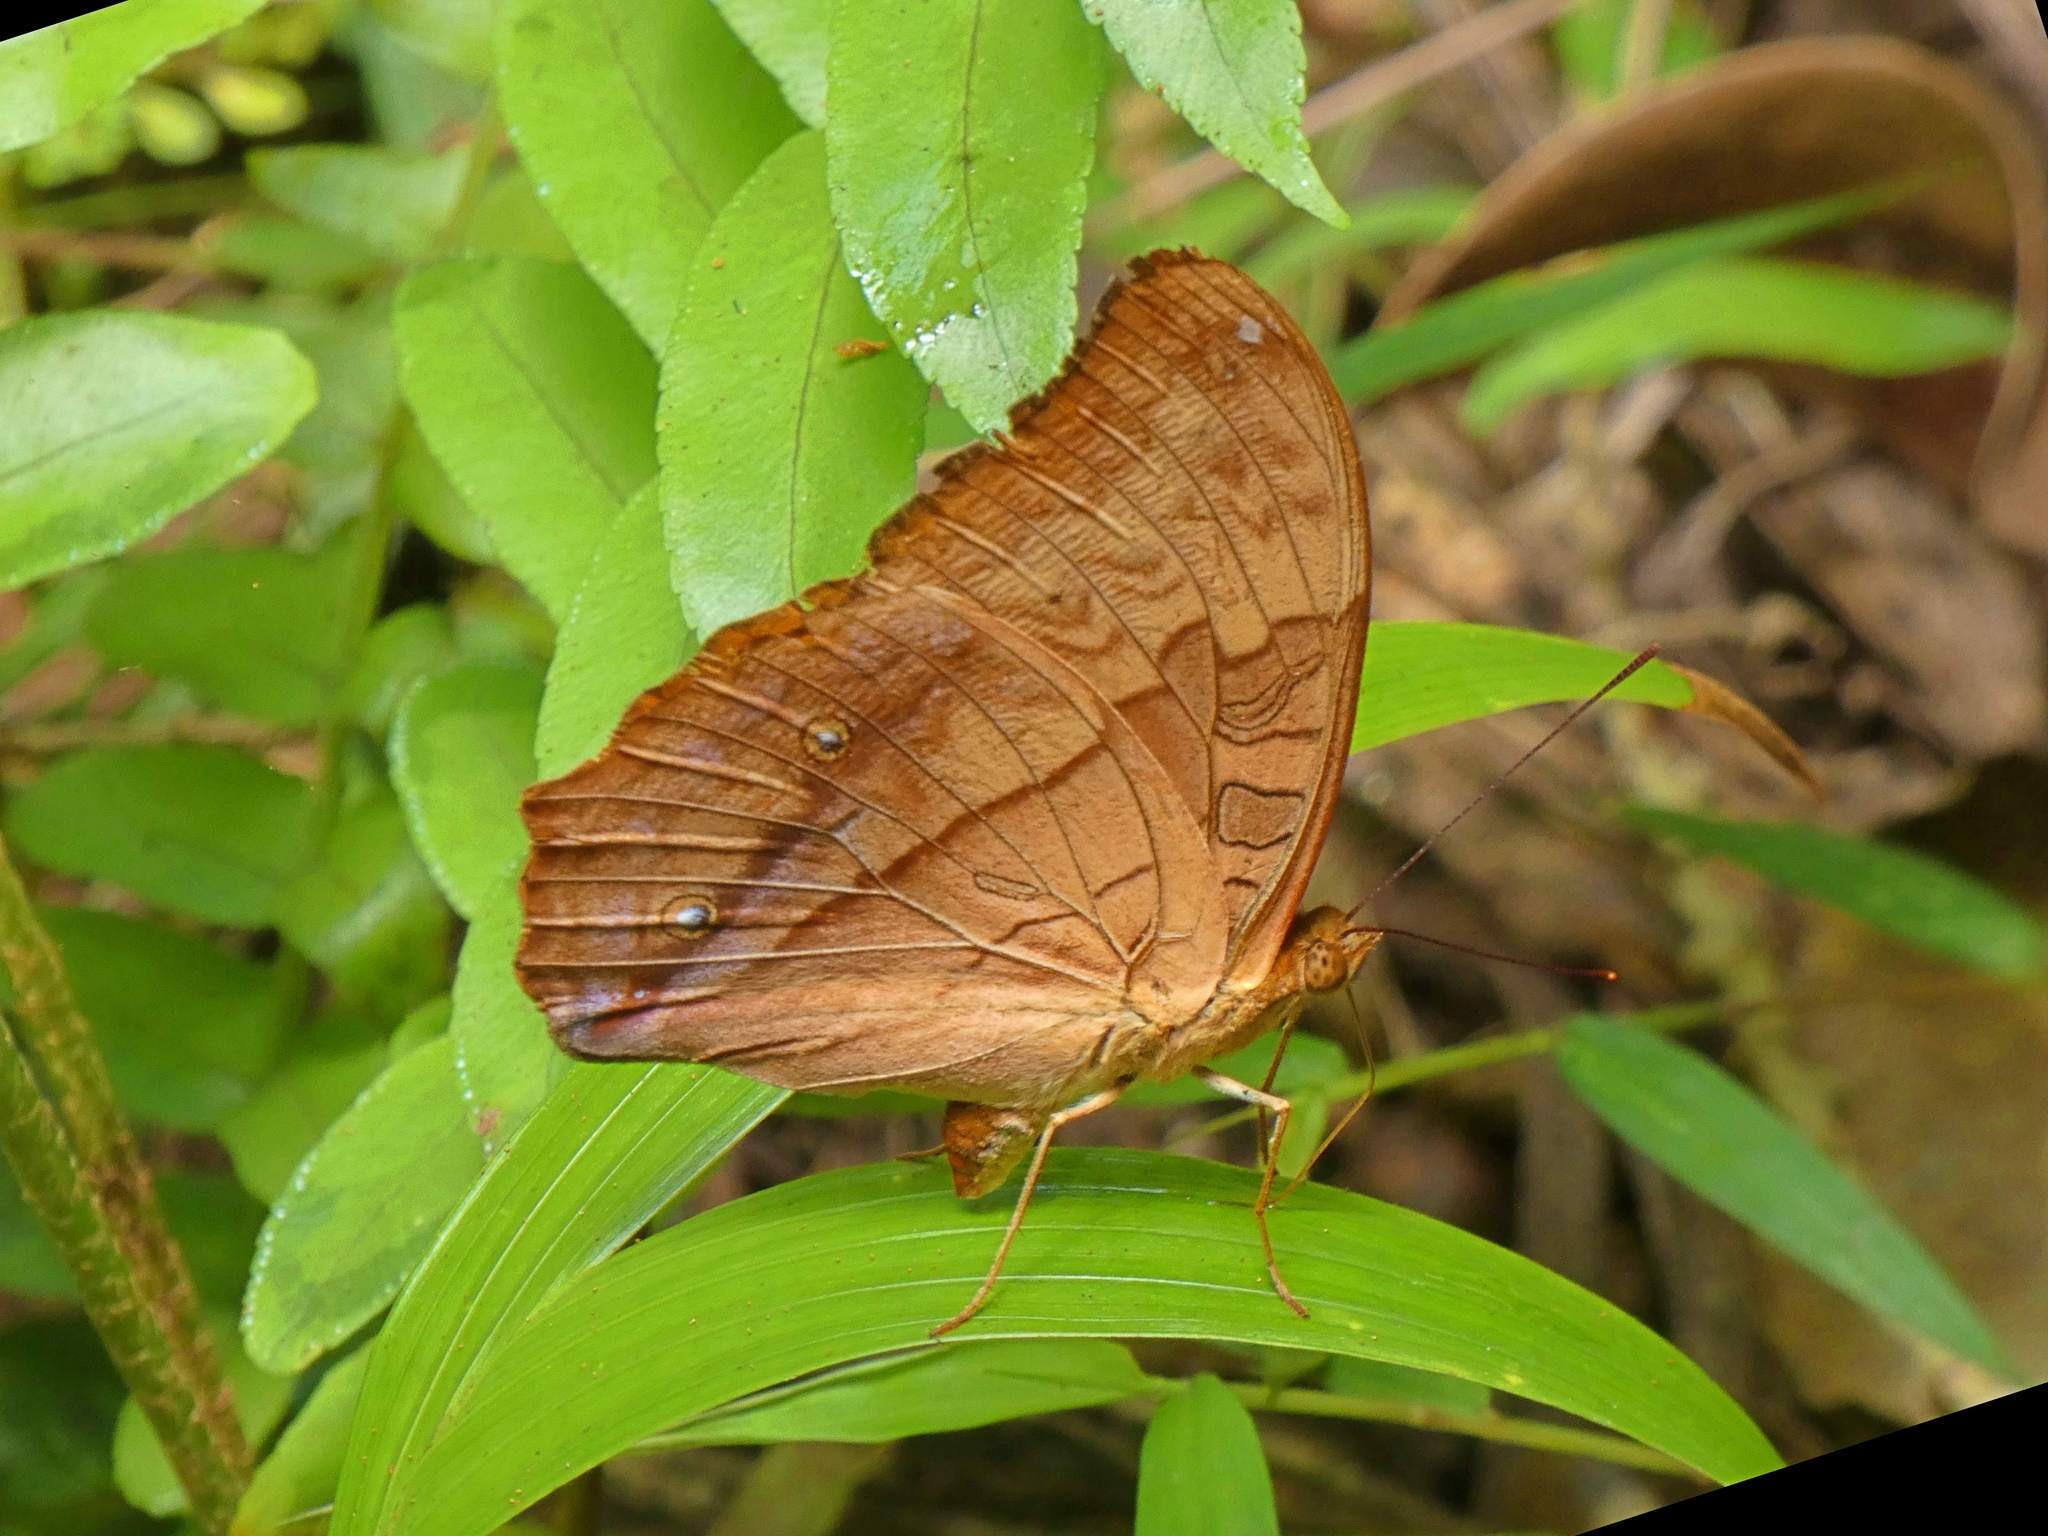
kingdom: Animalia
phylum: Arthropoda
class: Insecta
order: Lepidoptera
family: Nymphalidae
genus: Vindula
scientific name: Vindula arsinoe
